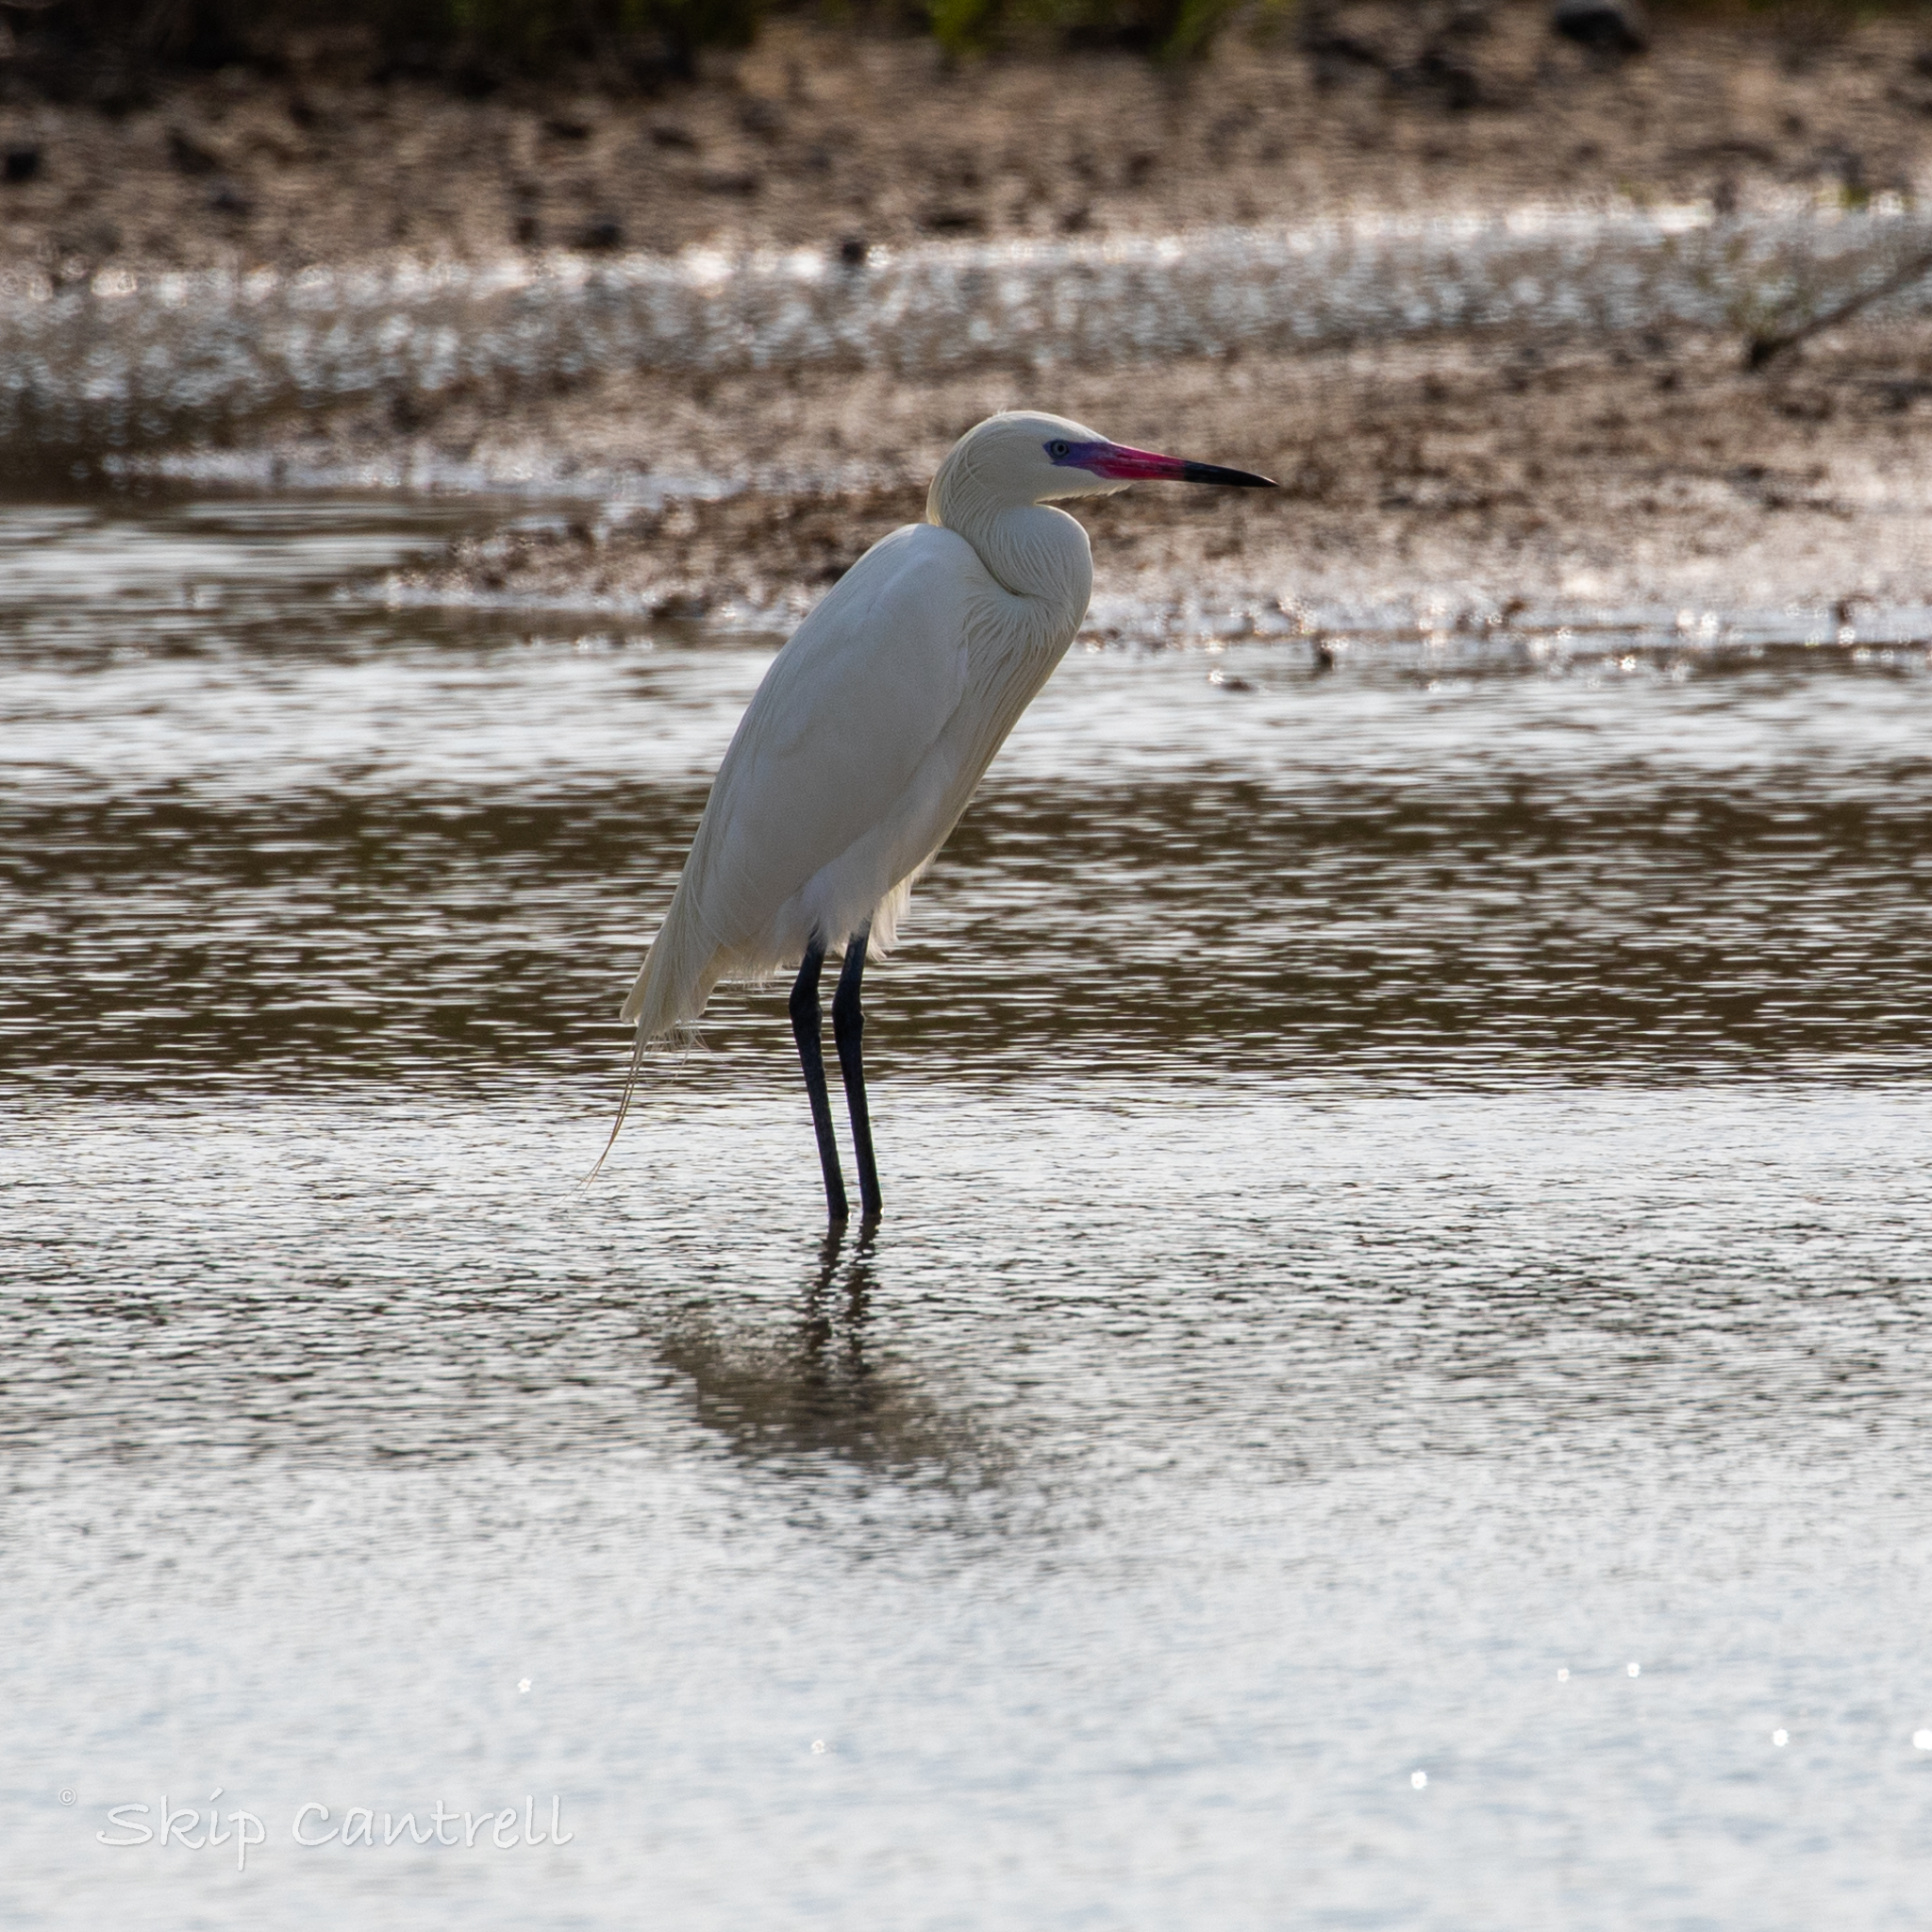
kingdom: Animalia
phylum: Chordata
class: Aves
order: Pelecaniformes
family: Ardeidae
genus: Egretta
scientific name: Egretta rufescens
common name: Reddish egret
